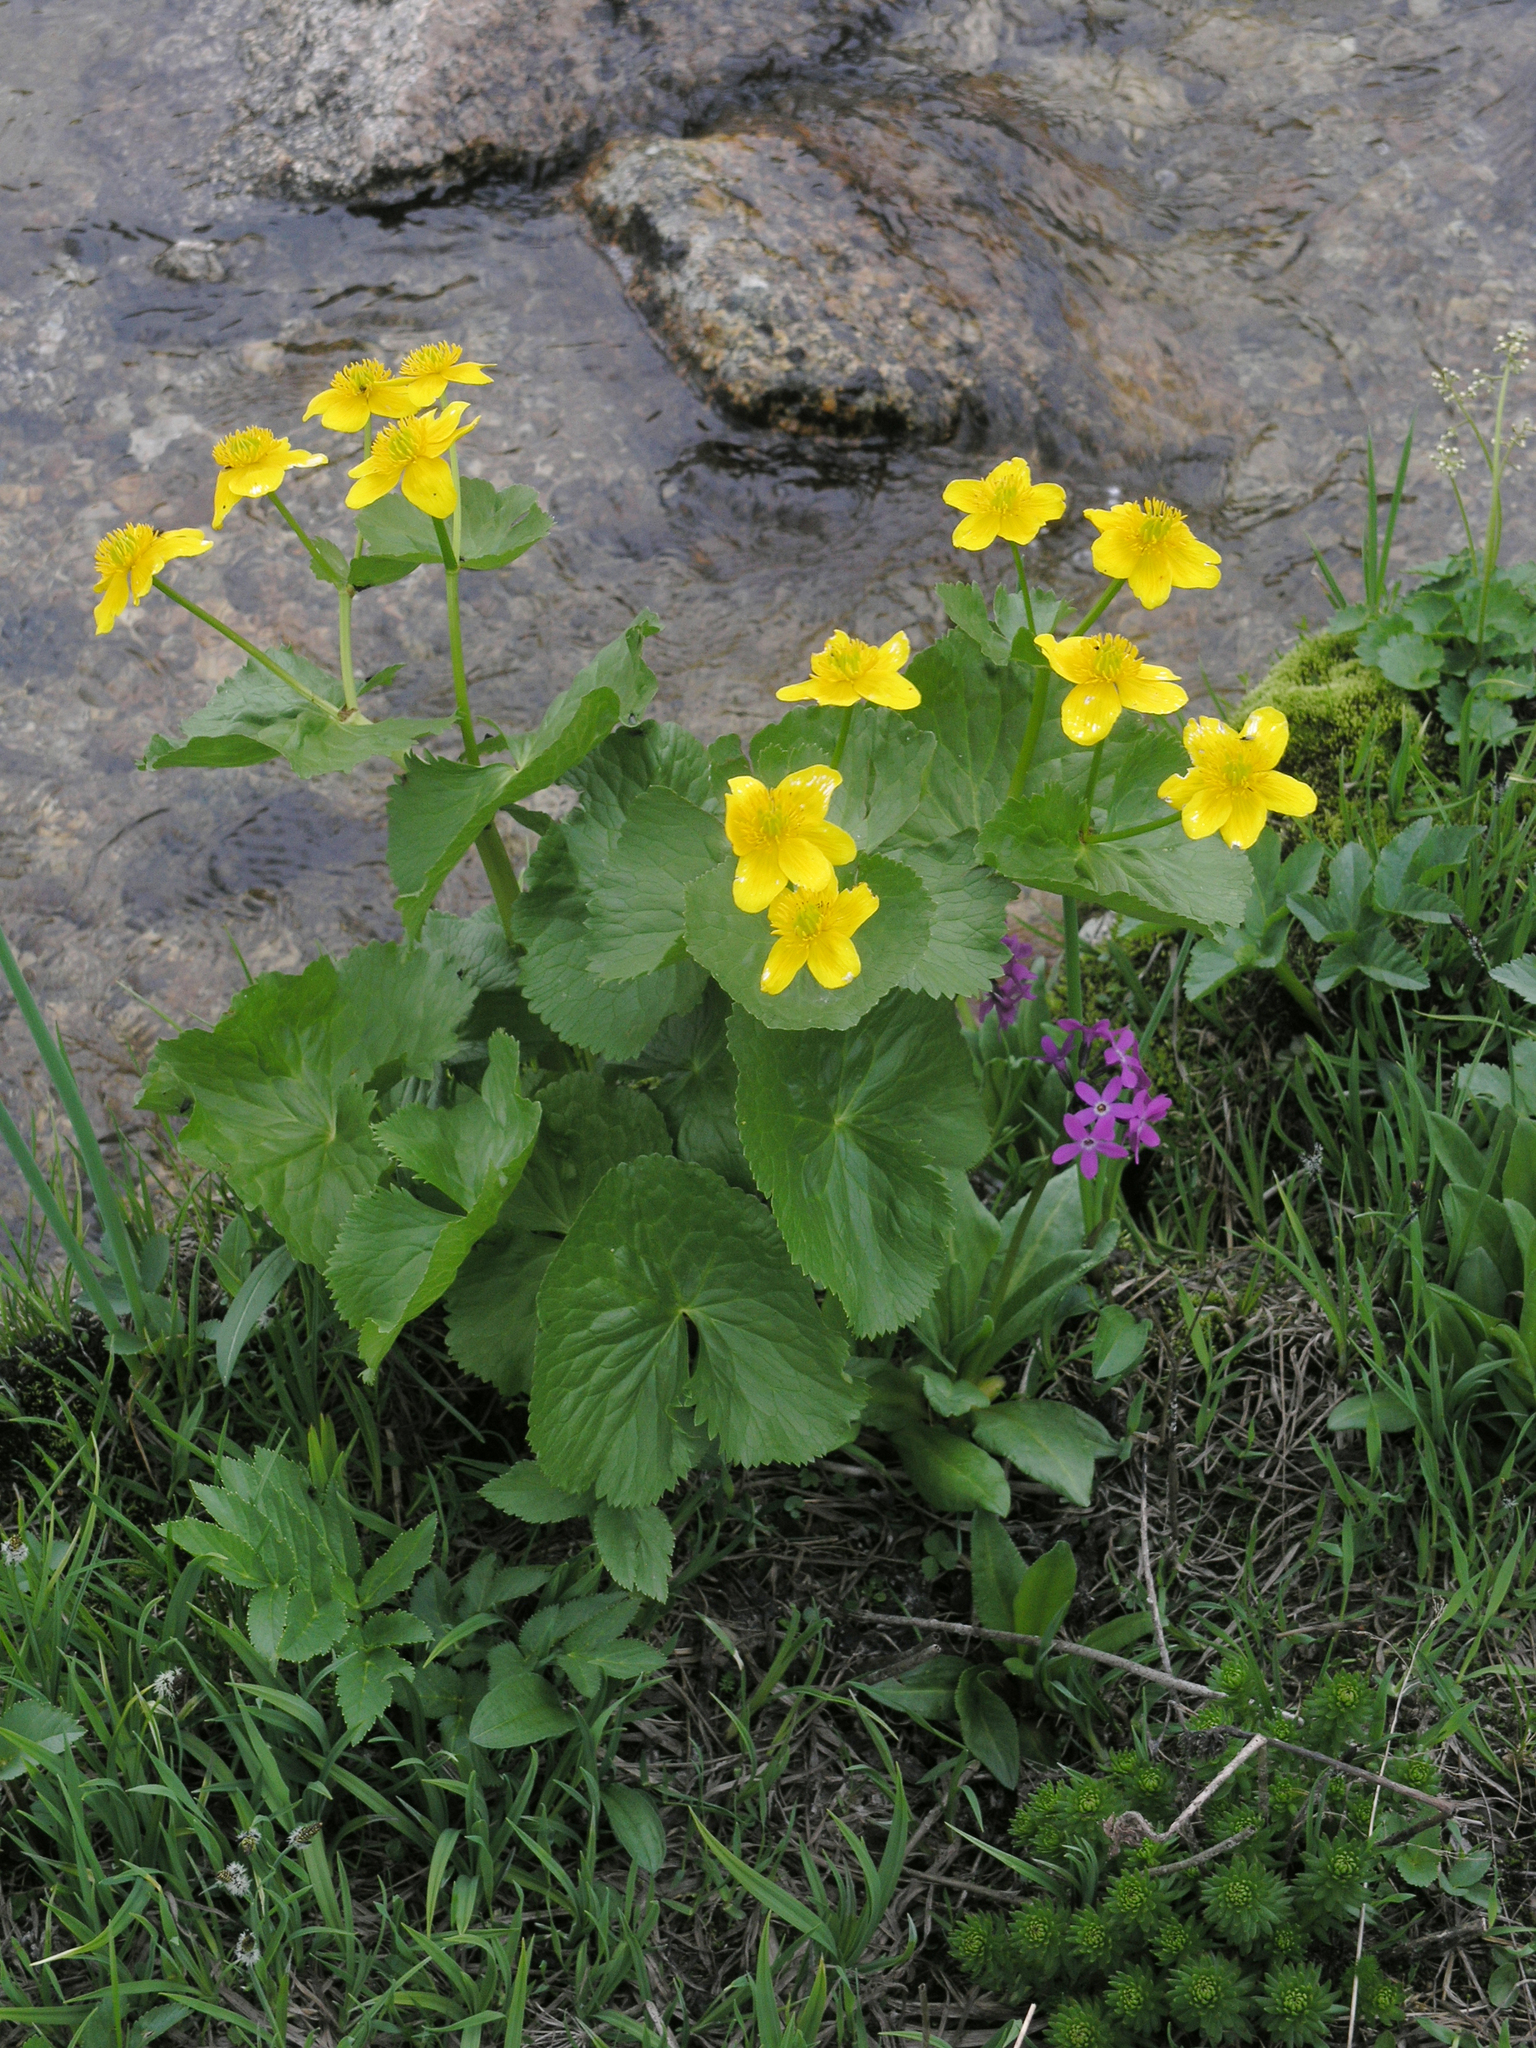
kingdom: Plantae
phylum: Tracheophyta
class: Magnoliopsida
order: Ranunculales
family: Ranunculaceae
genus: Caltha
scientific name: Caltha palustris
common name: Marsh marigold
